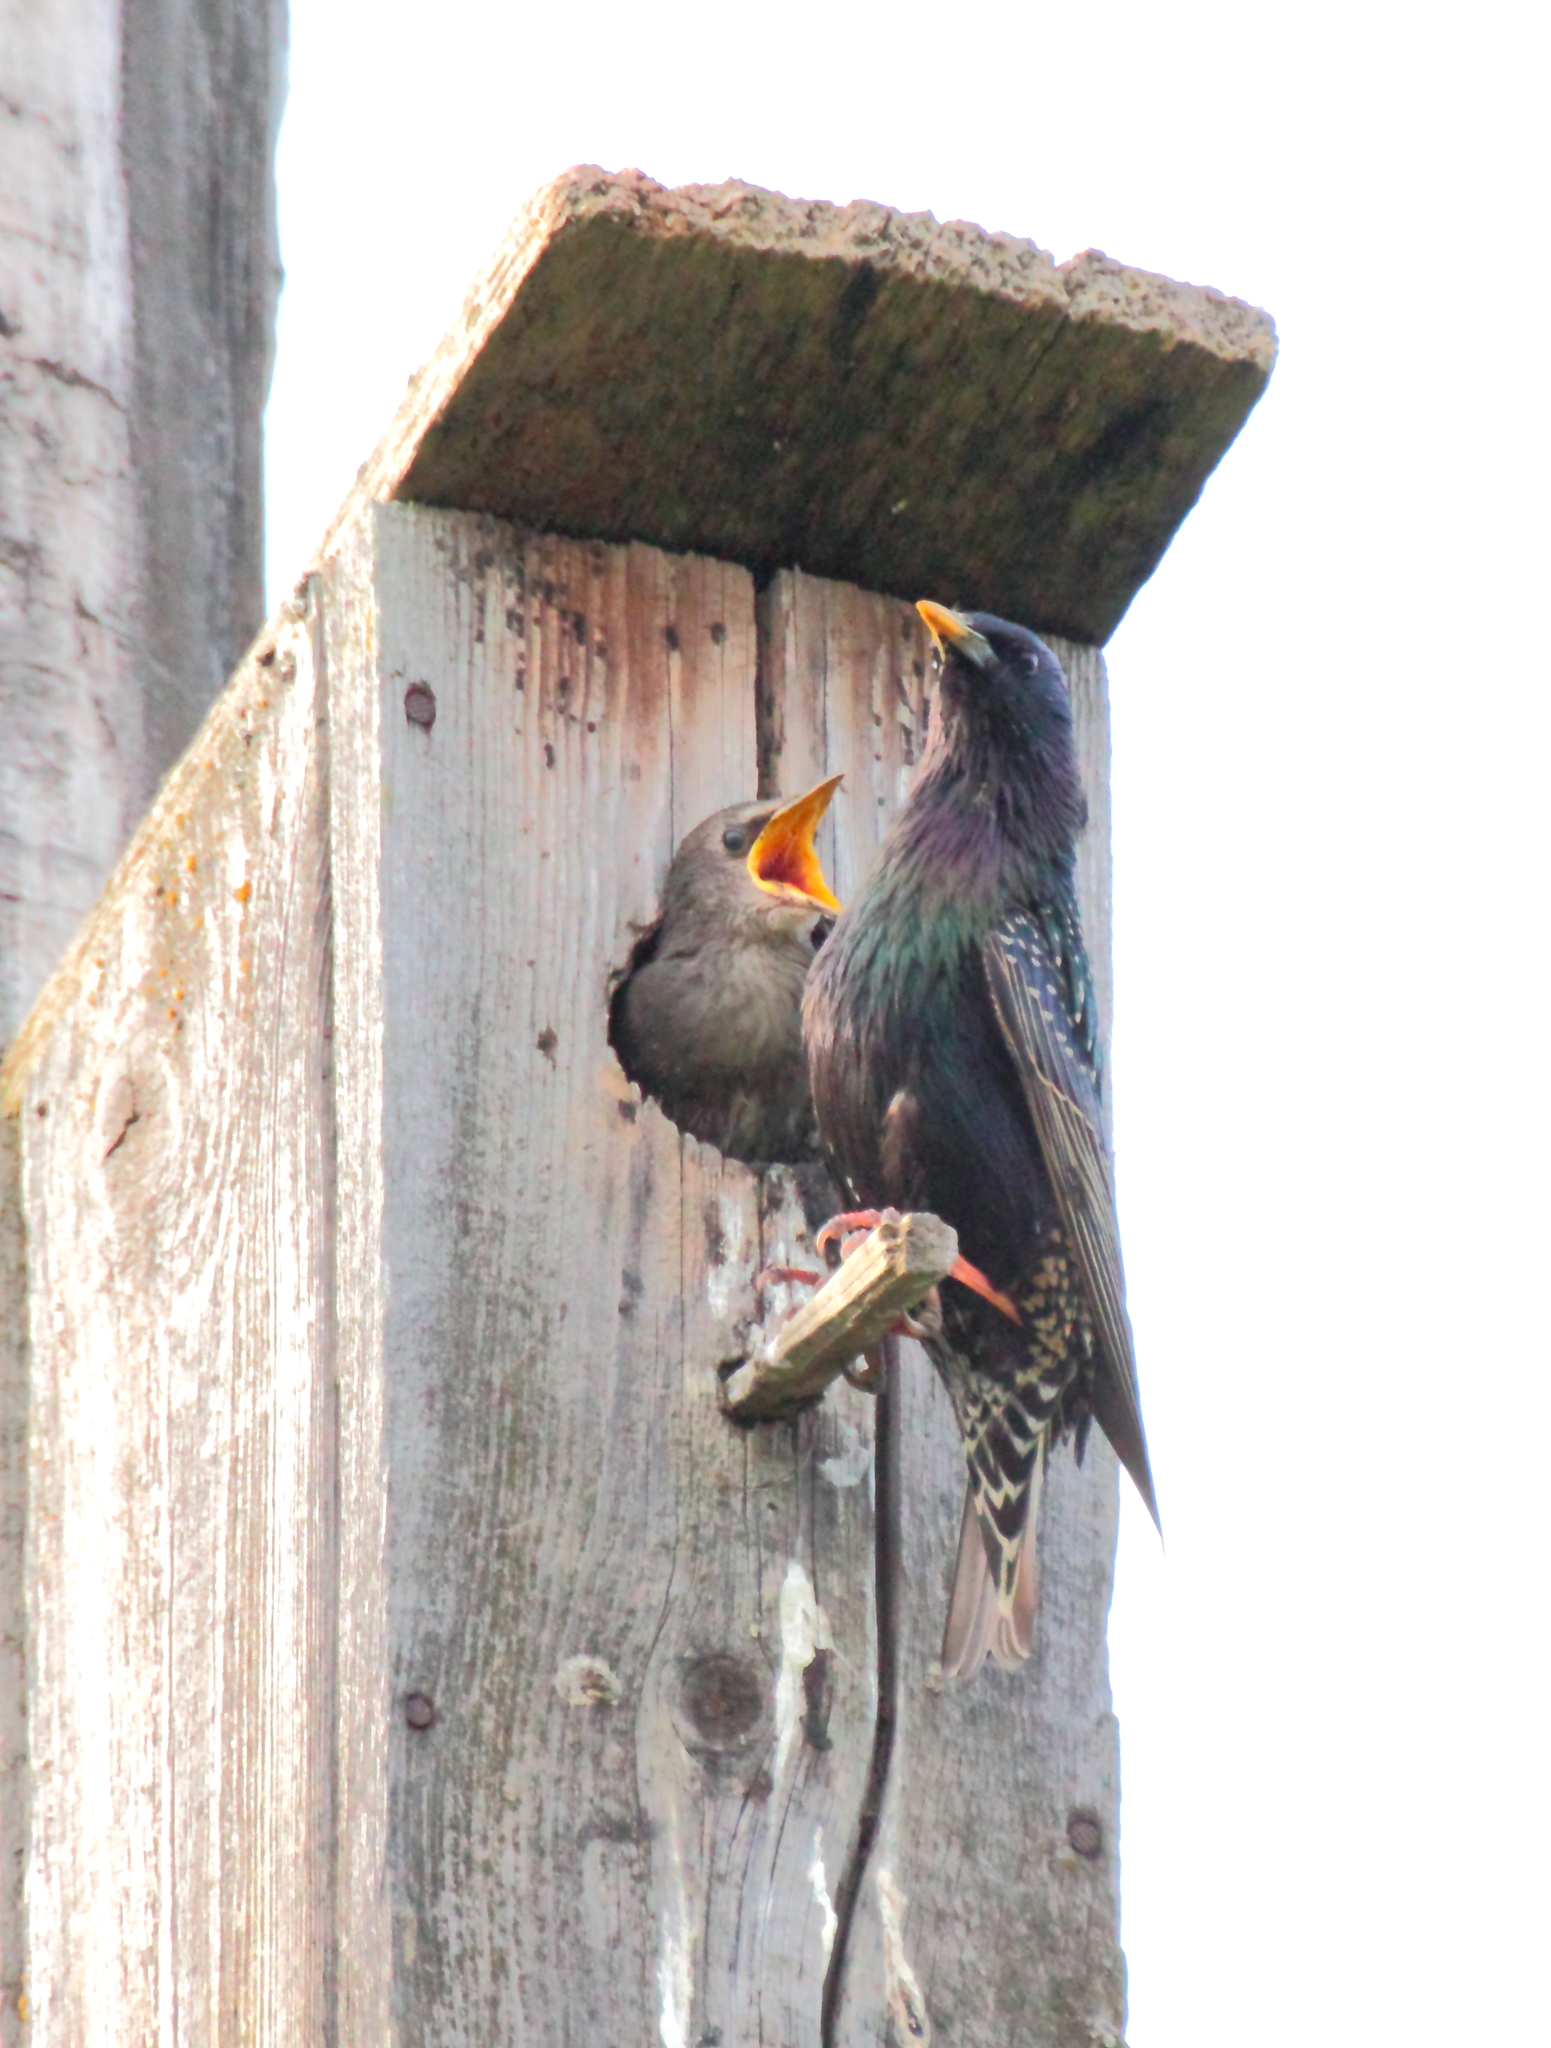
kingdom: Animalia
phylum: Chordata
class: Aves
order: Passeriformes
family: Sturnidae
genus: Sturnus
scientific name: Sturnus vulgaris
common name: Common starling
